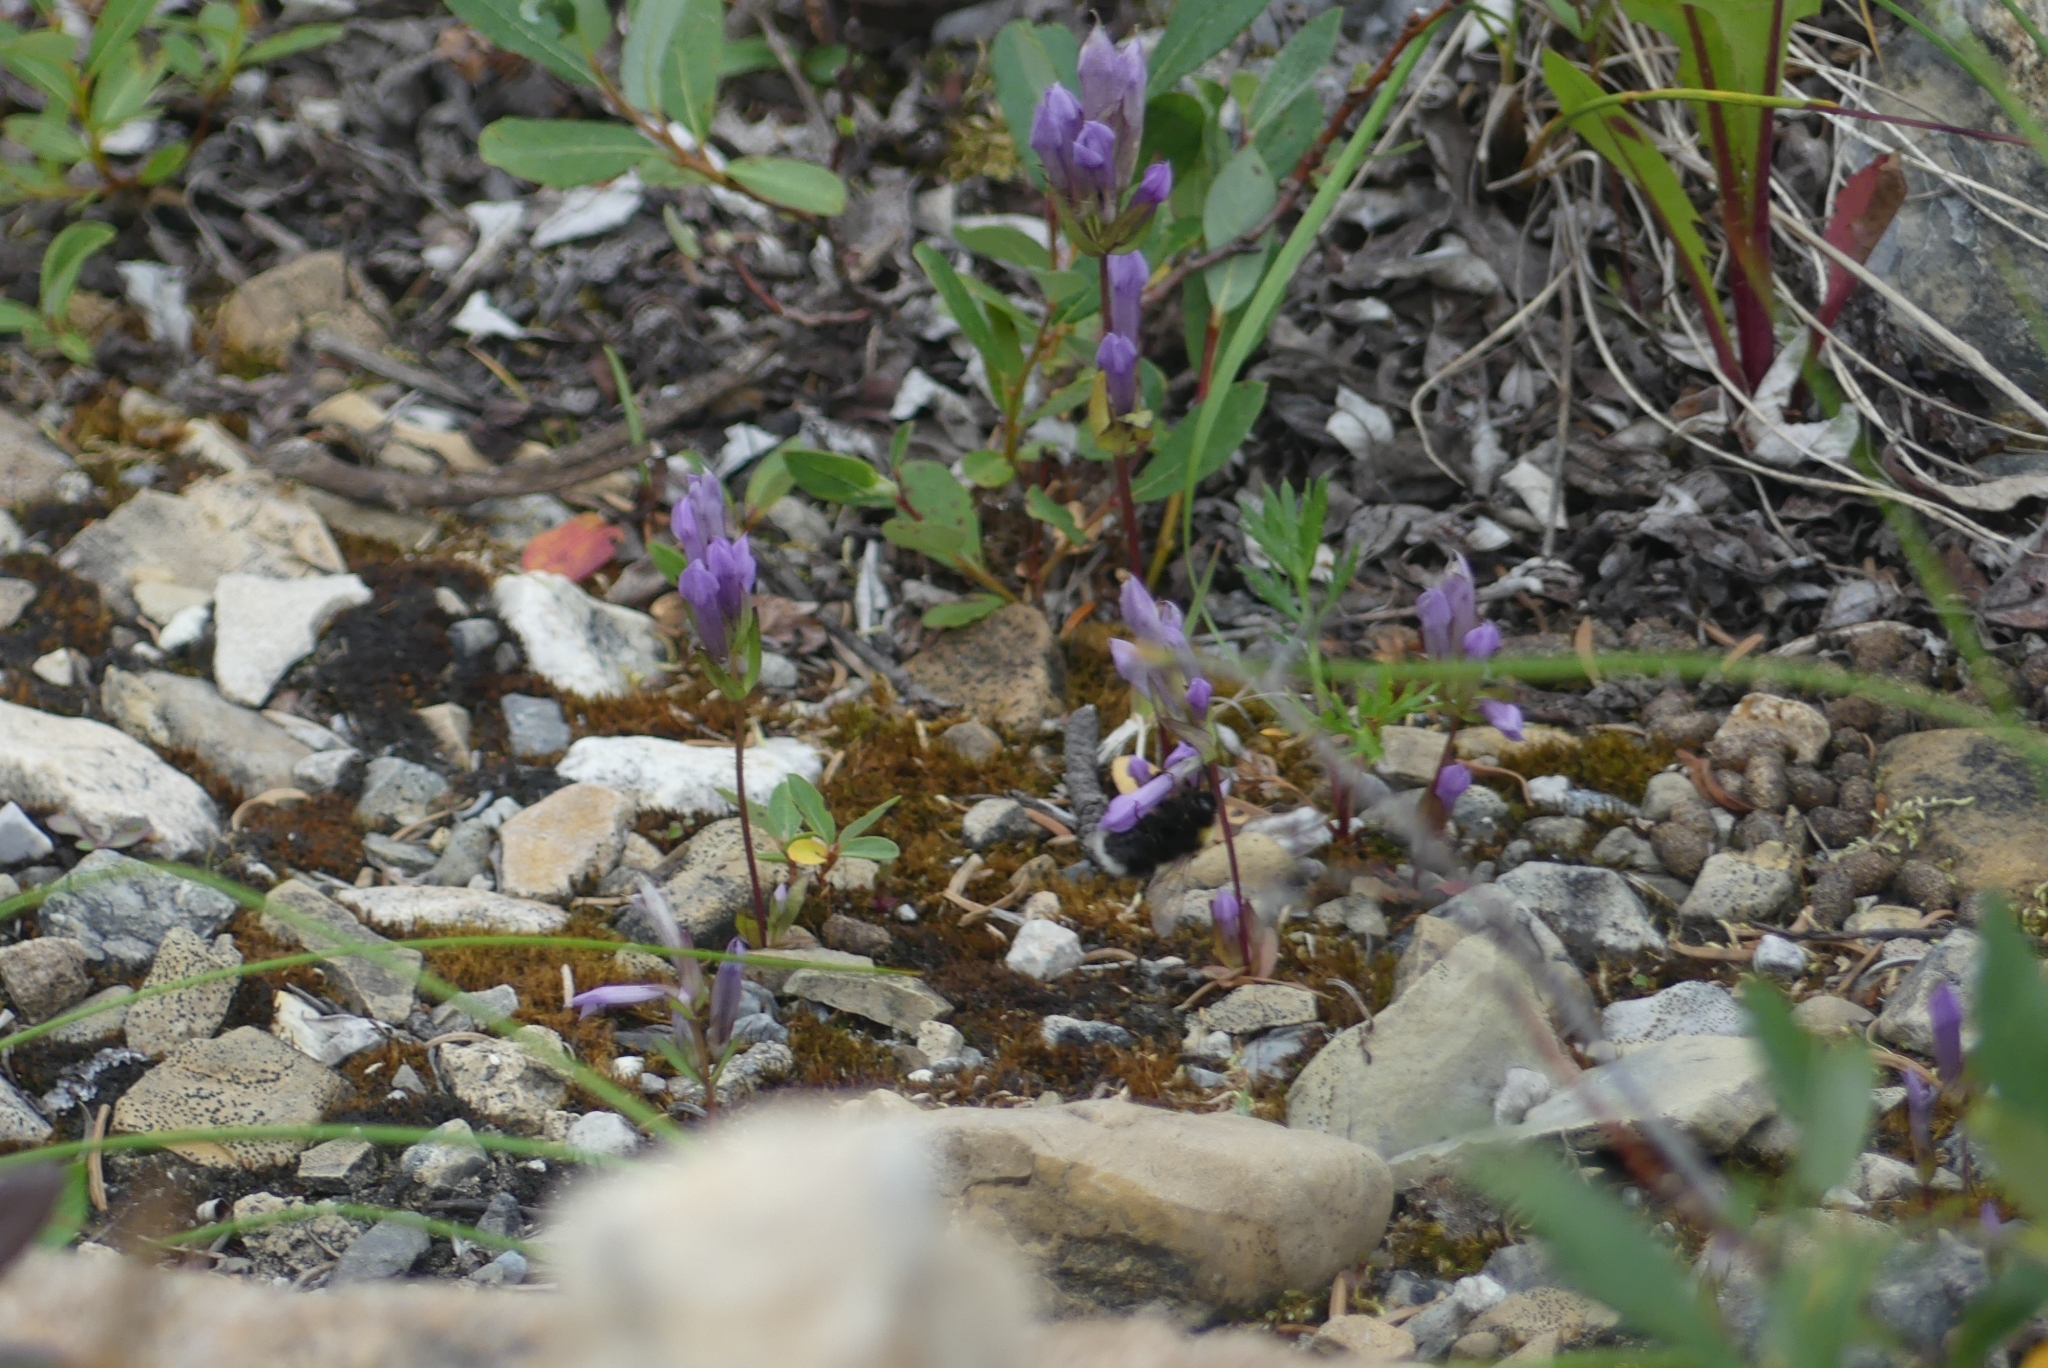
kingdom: Animalia
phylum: Arthropoda
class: Insecta
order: Hymenoptera
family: Apidae
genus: Bombus
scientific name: Bombus cryptarum
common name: Cryptic bumblebee
